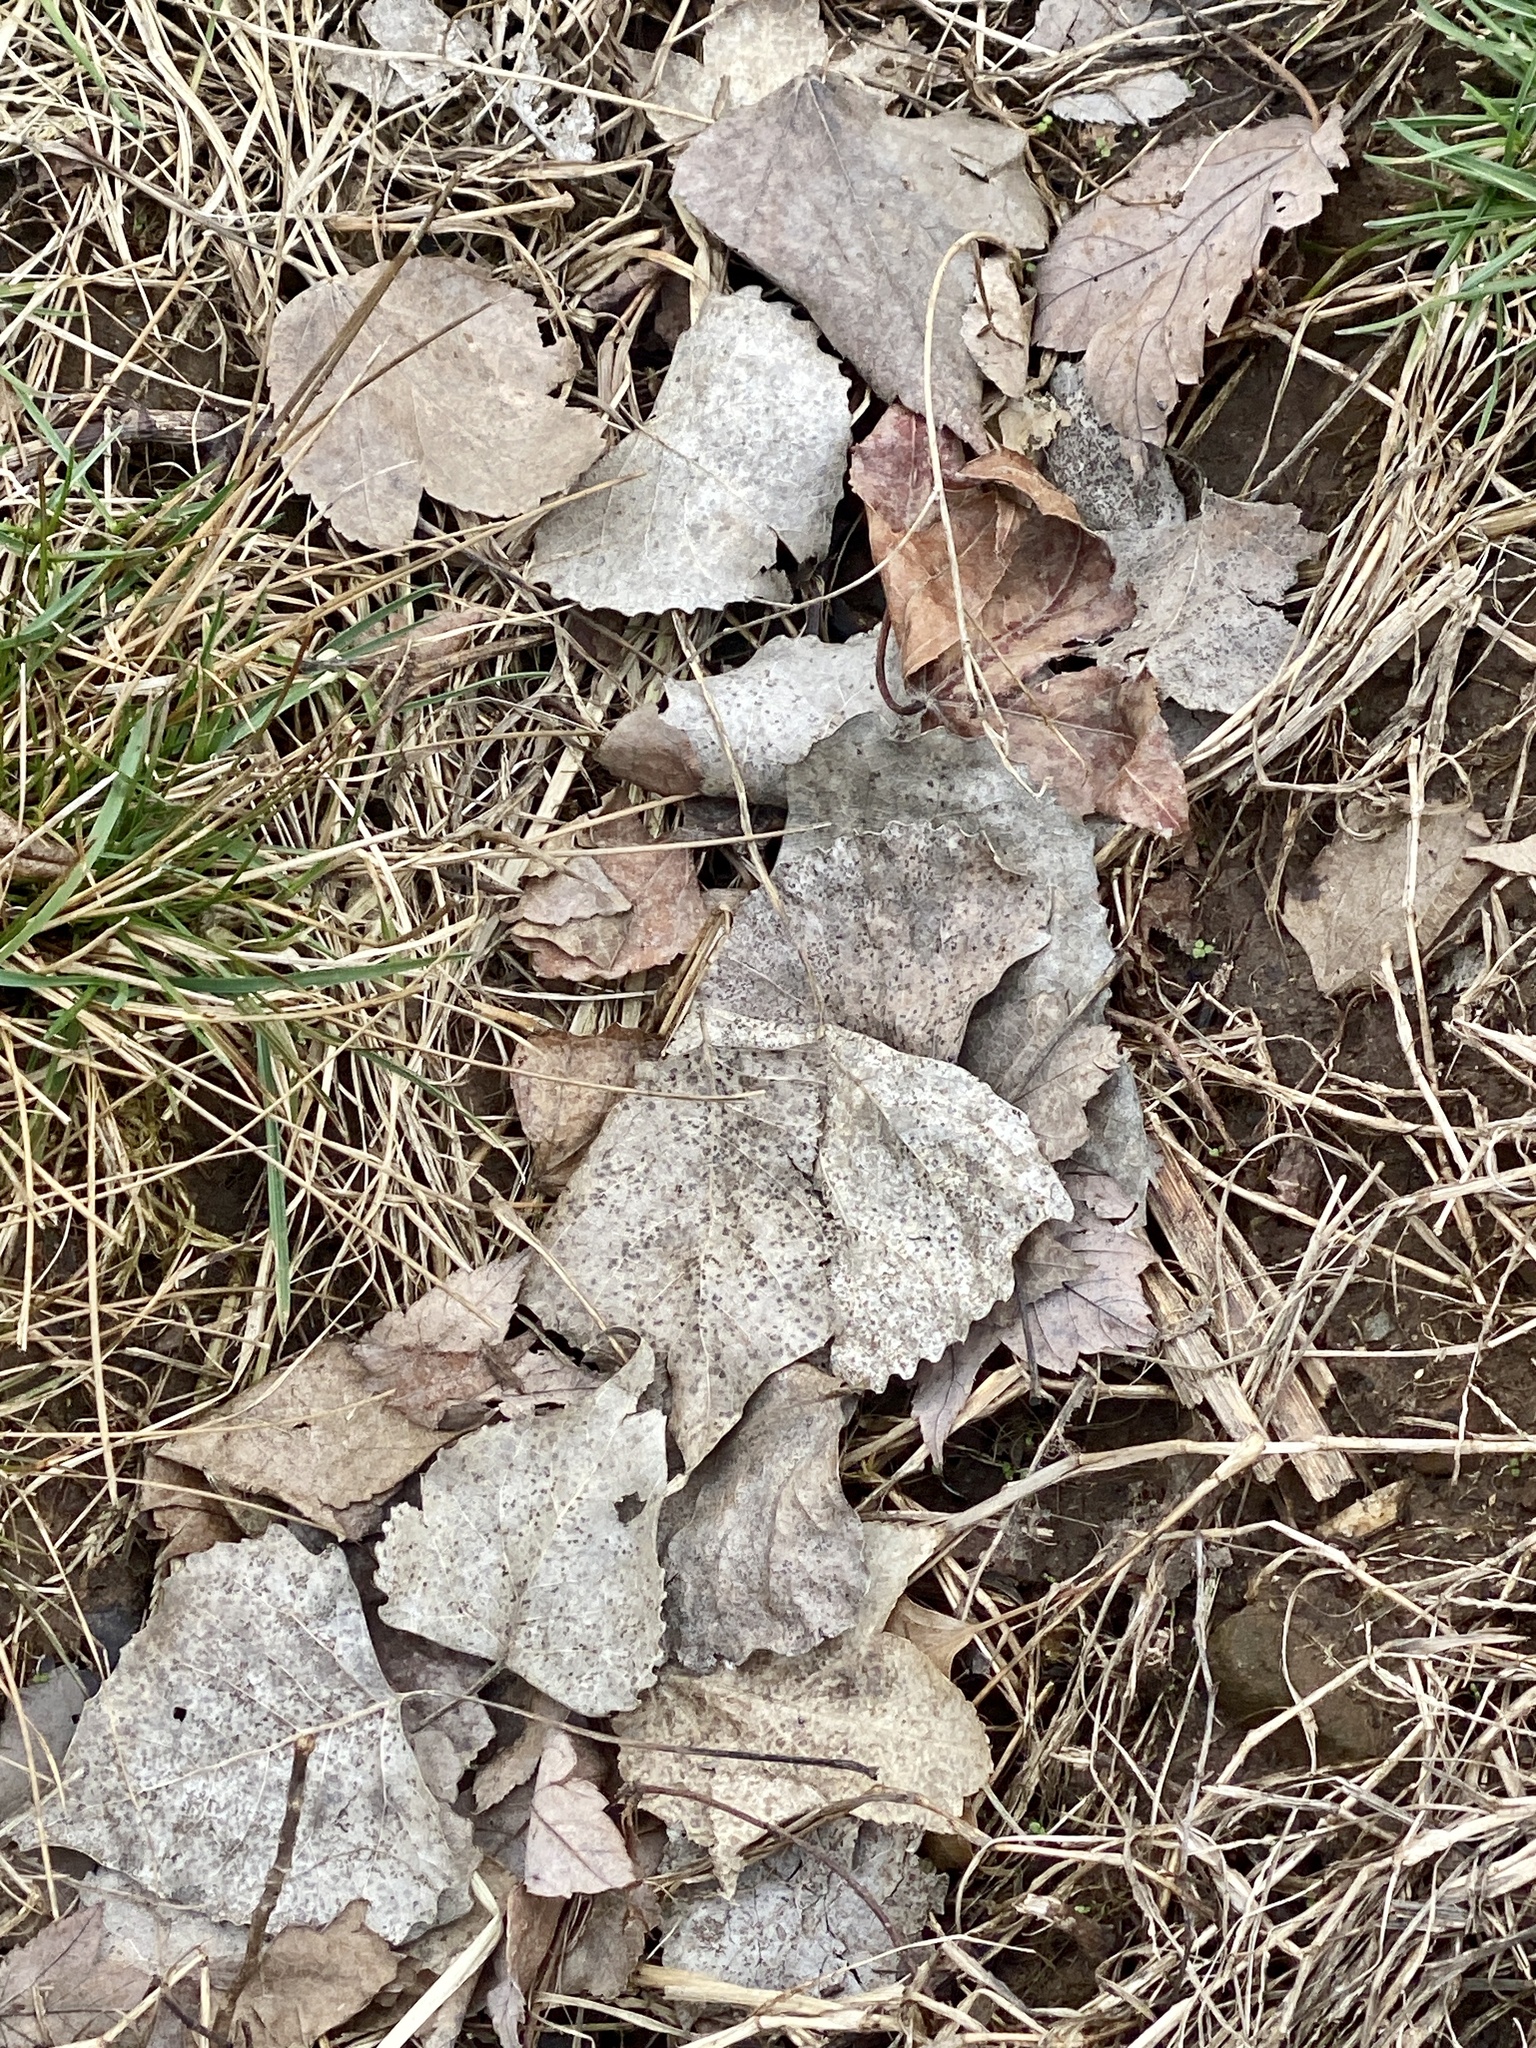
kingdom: Plantae
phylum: Tracheophyta
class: Magnoliopsida
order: Malpighiales
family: Salicaceae
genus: Populus
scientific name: Populus deltoides
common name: Eastern cottonwood
